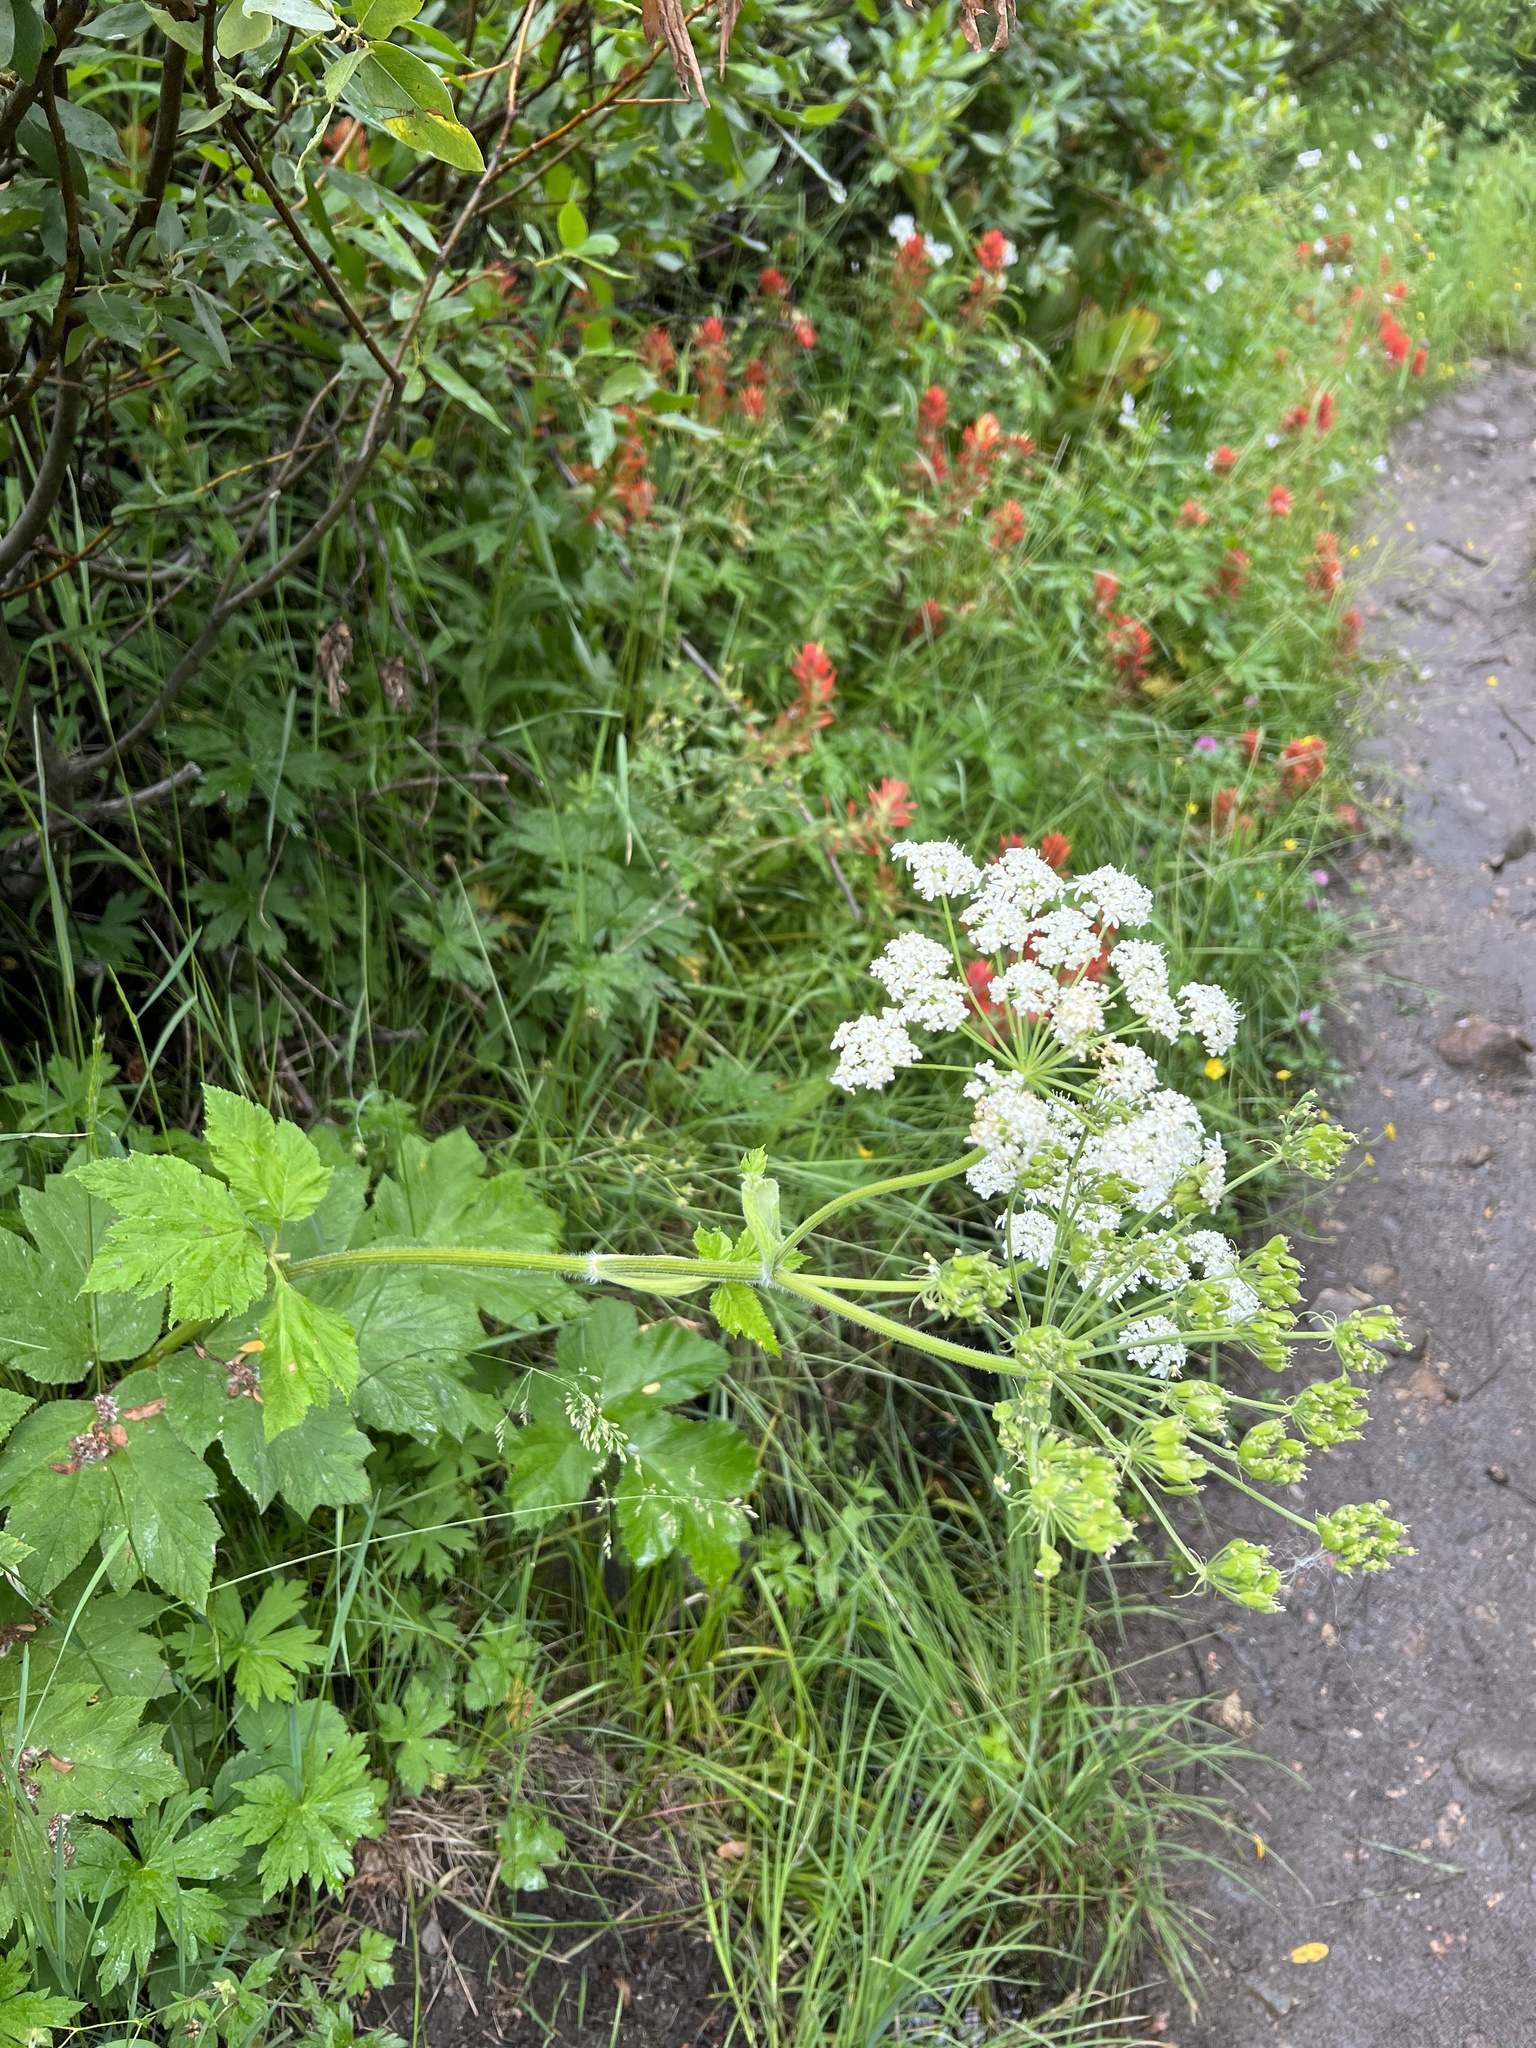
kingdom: Plantae
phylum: Tracheophyta
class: Magnoliopsida
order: Apiales
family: Apiaceae
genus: Heracleum
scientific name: Heracleum maximum
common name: American cow parsnip
